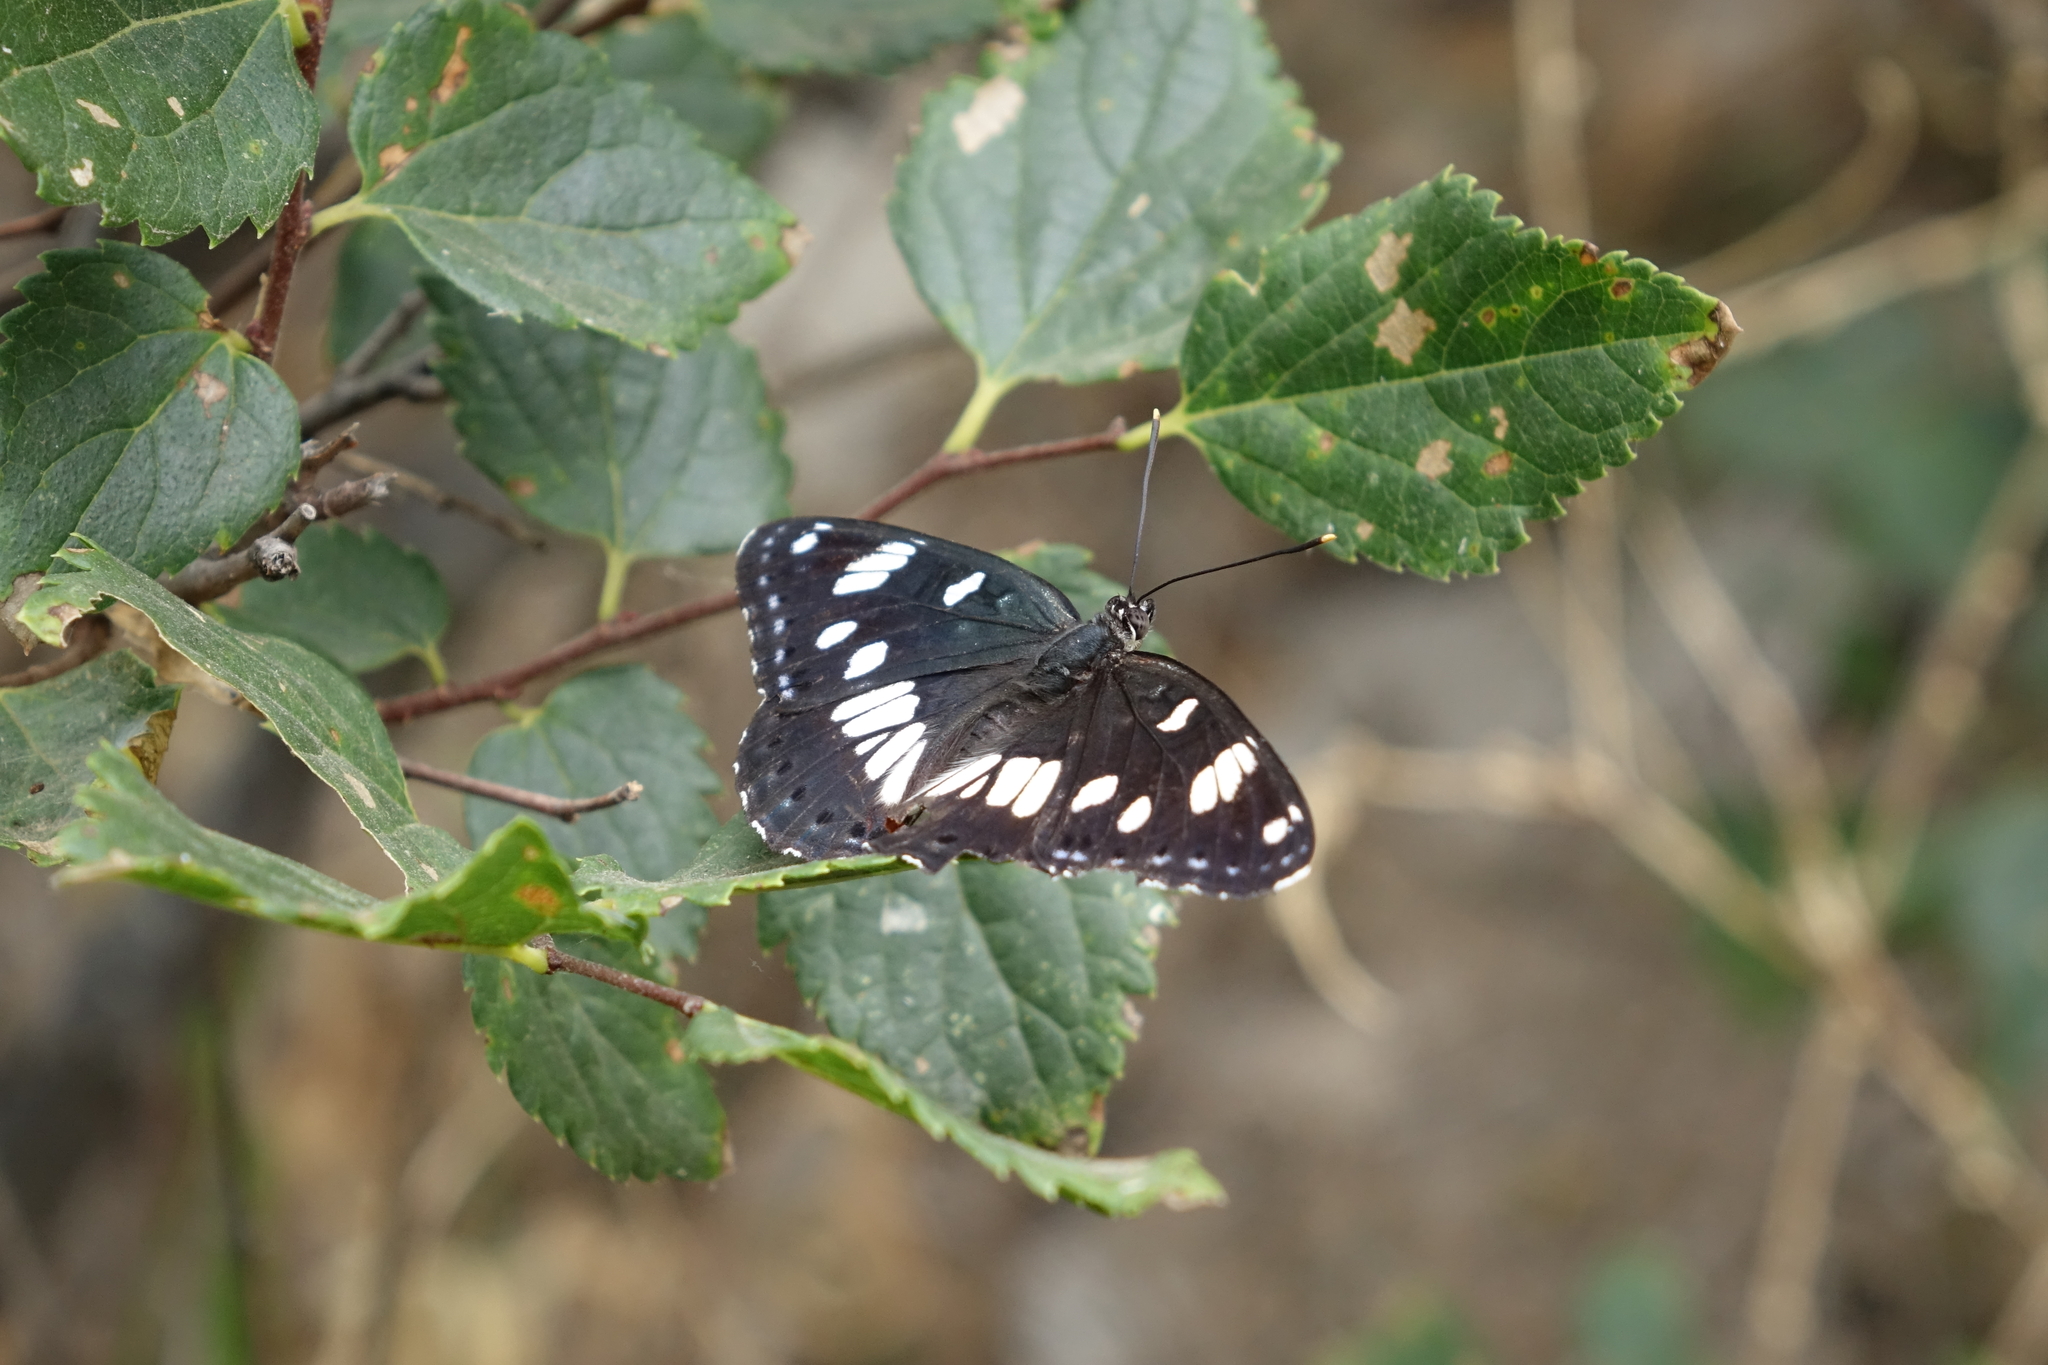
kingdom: Animalia
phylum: Arthropoda
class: Insecta
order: Lepidoptera
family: Nymphalidae
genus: Limenitis
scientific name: Limenitis reducta
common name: Southern white admiral
